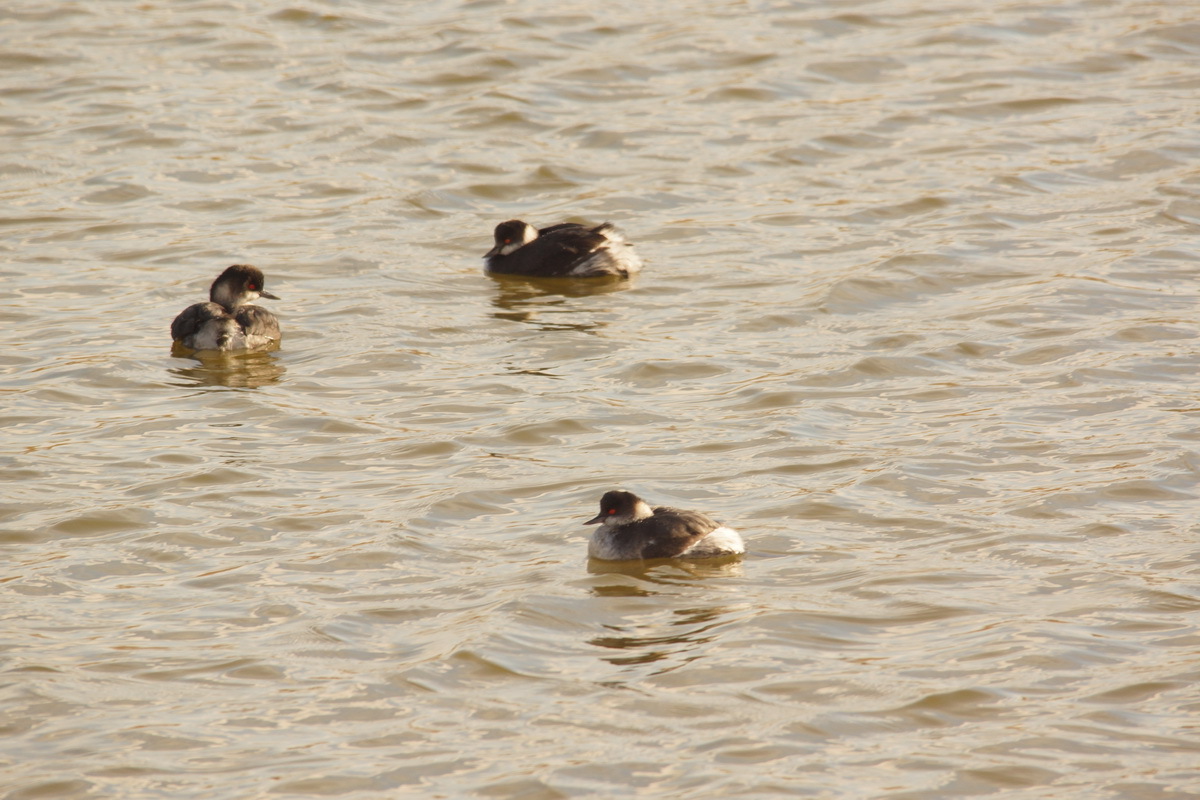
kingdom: Animalia
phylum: Chordata
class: Aves
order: Podicipediformes
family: Podicipedidae
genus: Podiceps
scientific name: Podiceps nigricollis
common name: Black-necked grebe
